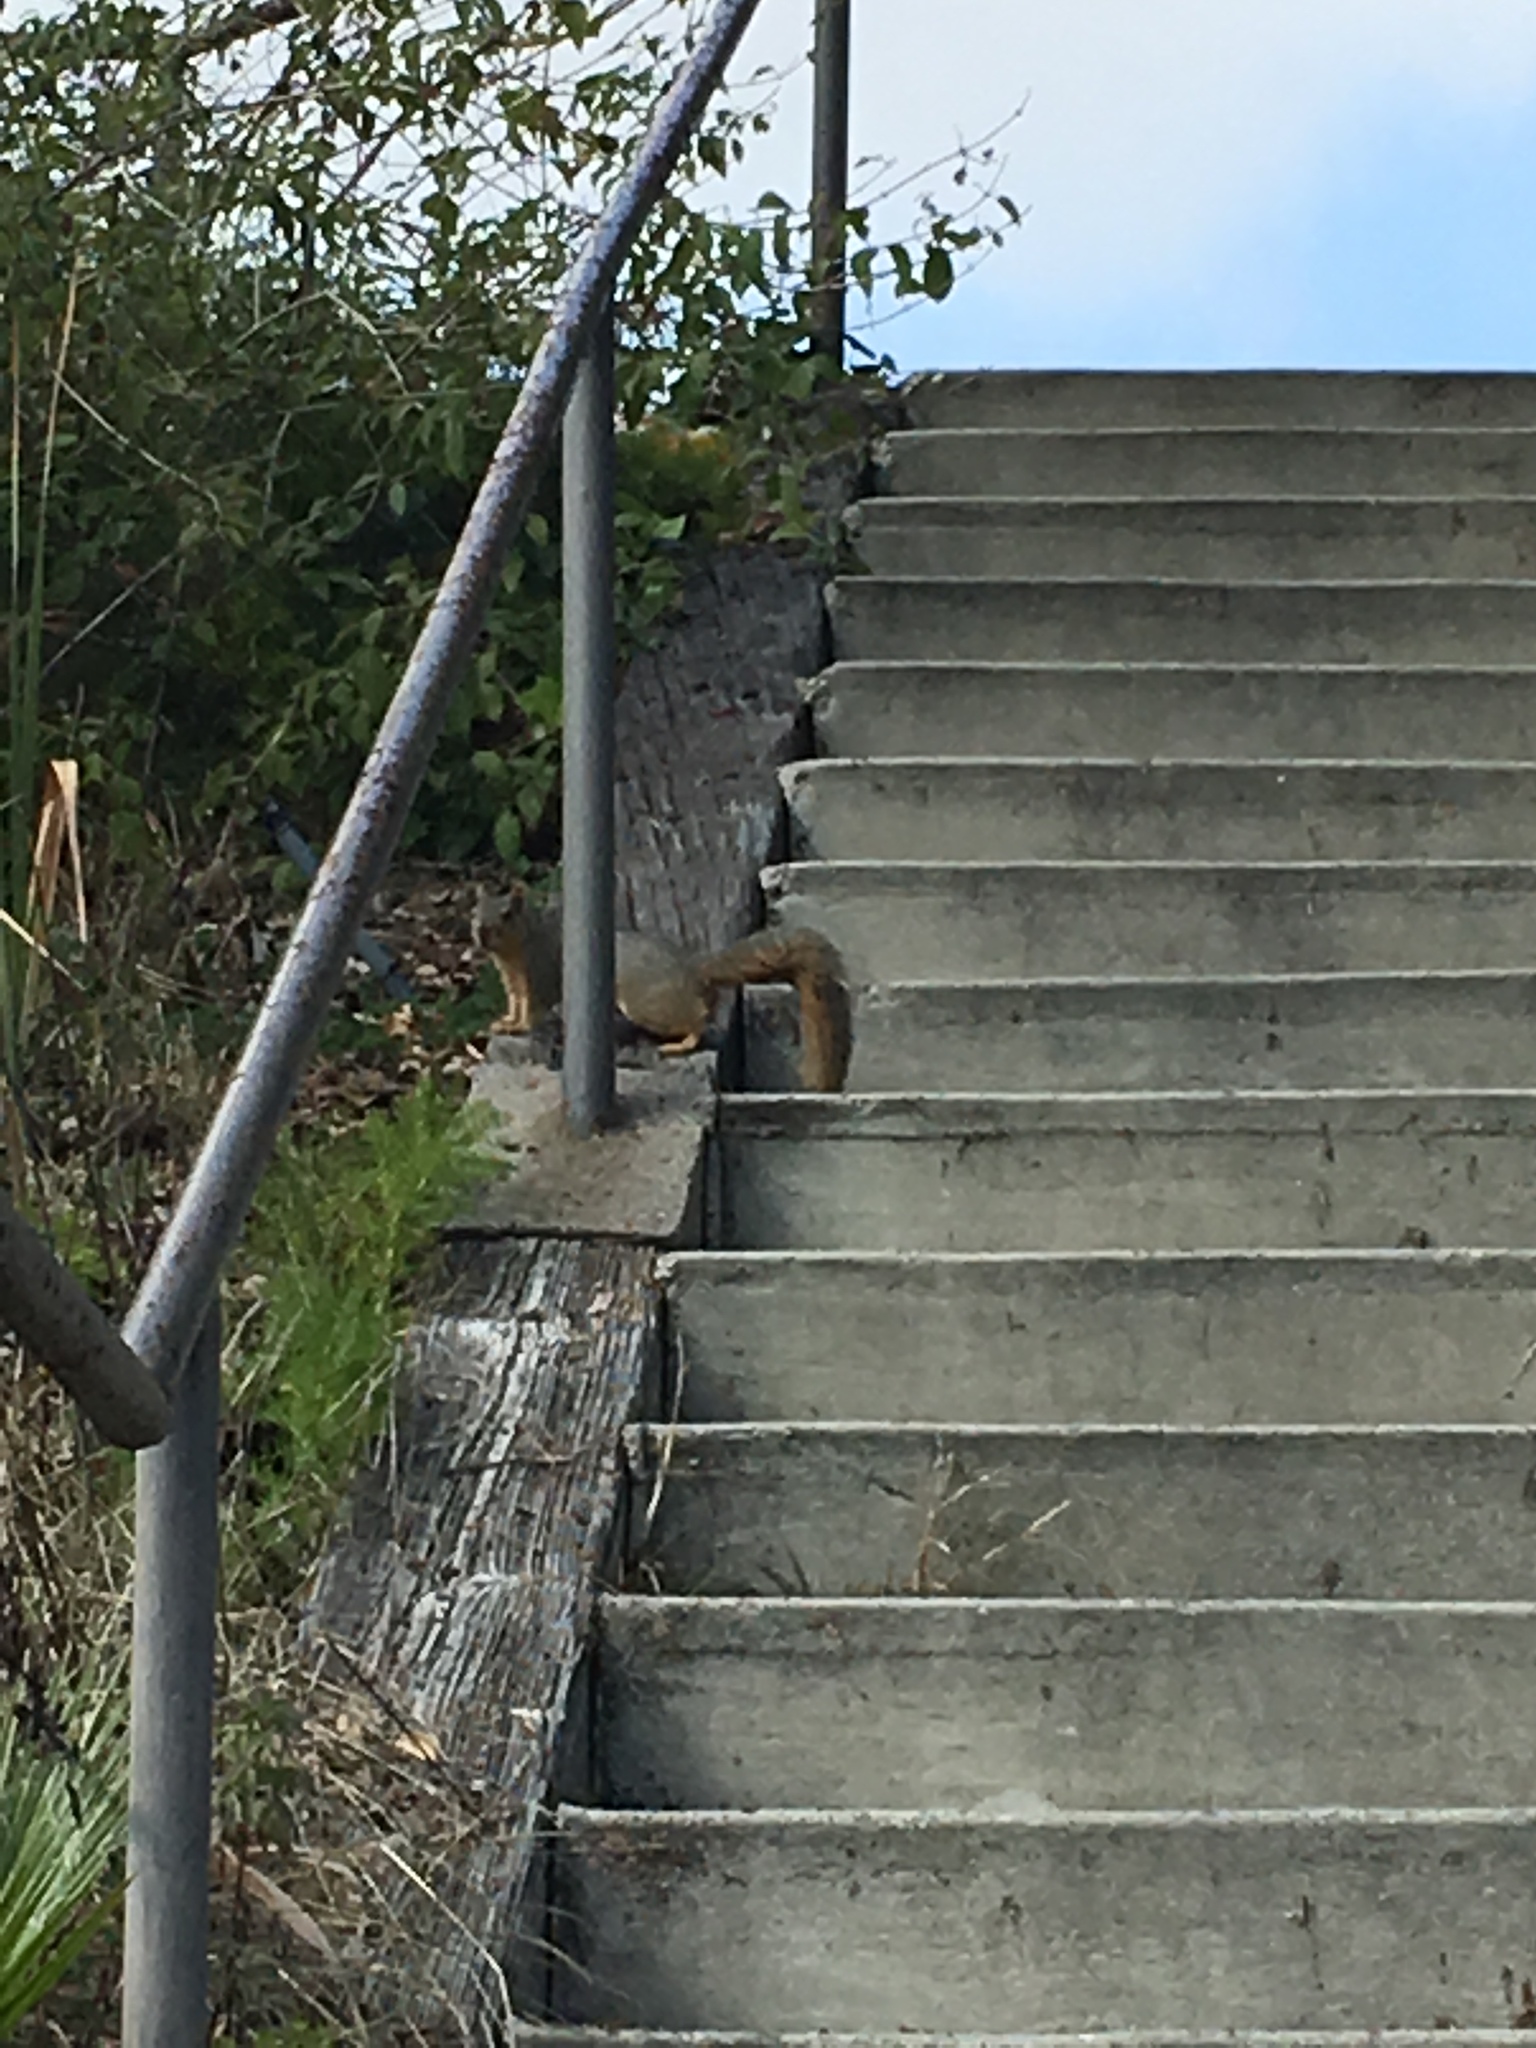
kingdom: Animalia
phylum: Chordata
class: Mammalia
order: Rodentia
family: Sciuridae
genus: Sciurus
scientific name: Sciurus niger
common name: Fox squirrel
